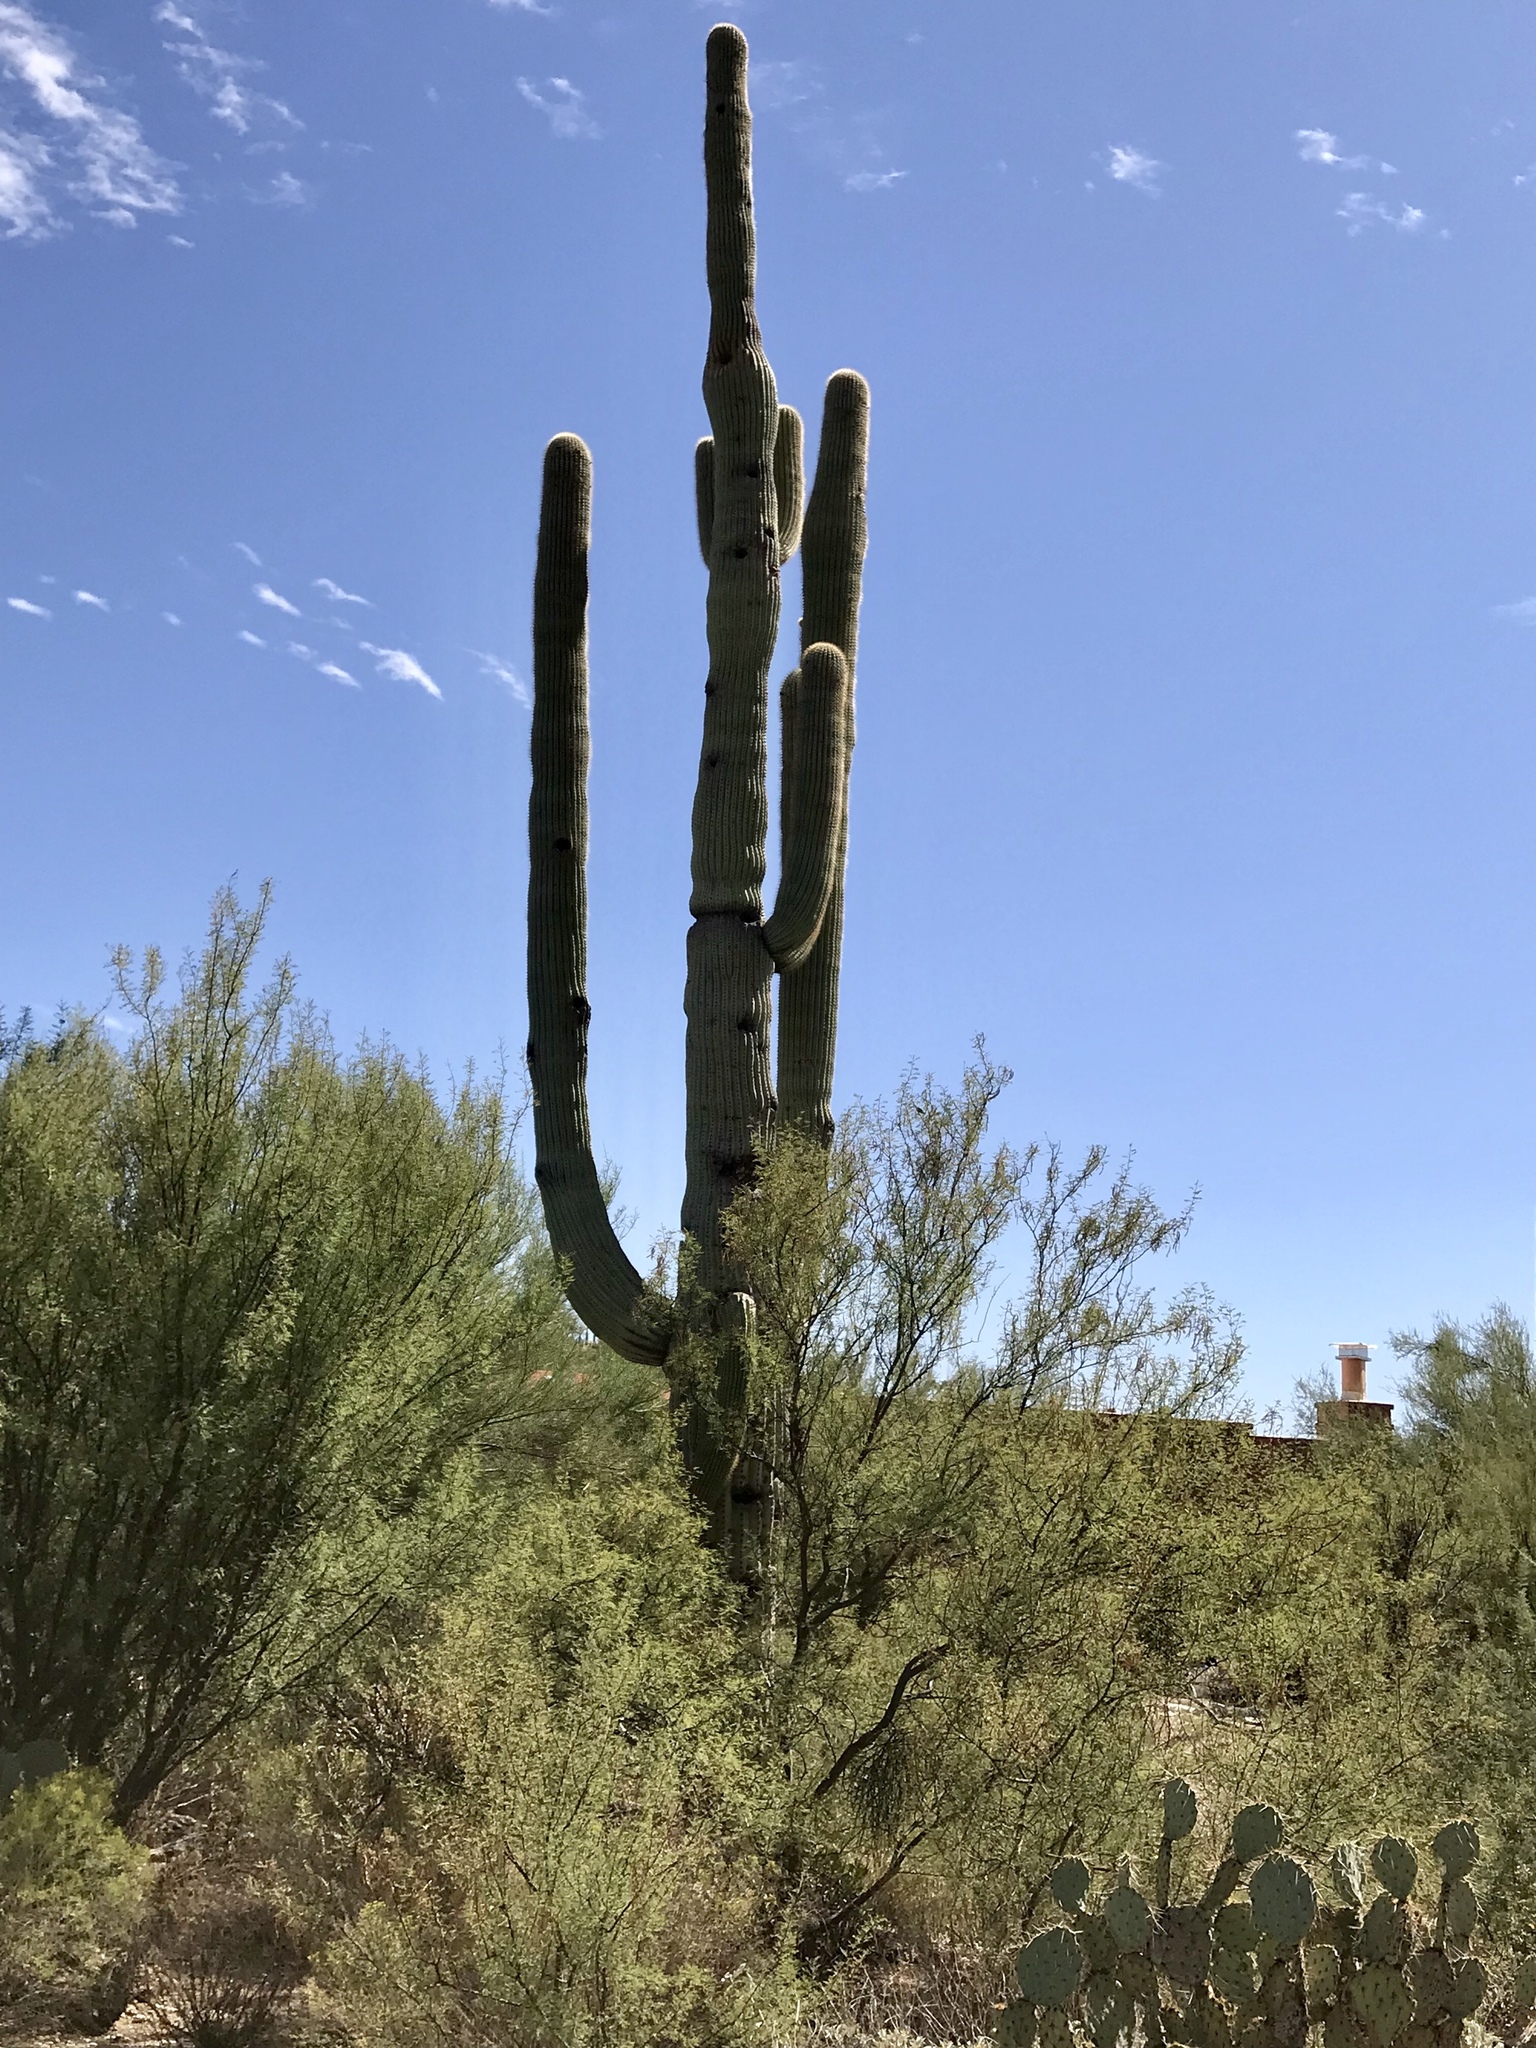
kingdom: Plantae
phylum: Tracheophyta
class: Magnoliopsida
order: Caryophyllales
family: Cactaceae
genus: Carnegiea
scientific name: Carnegiea gigantea
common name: Saguaro
